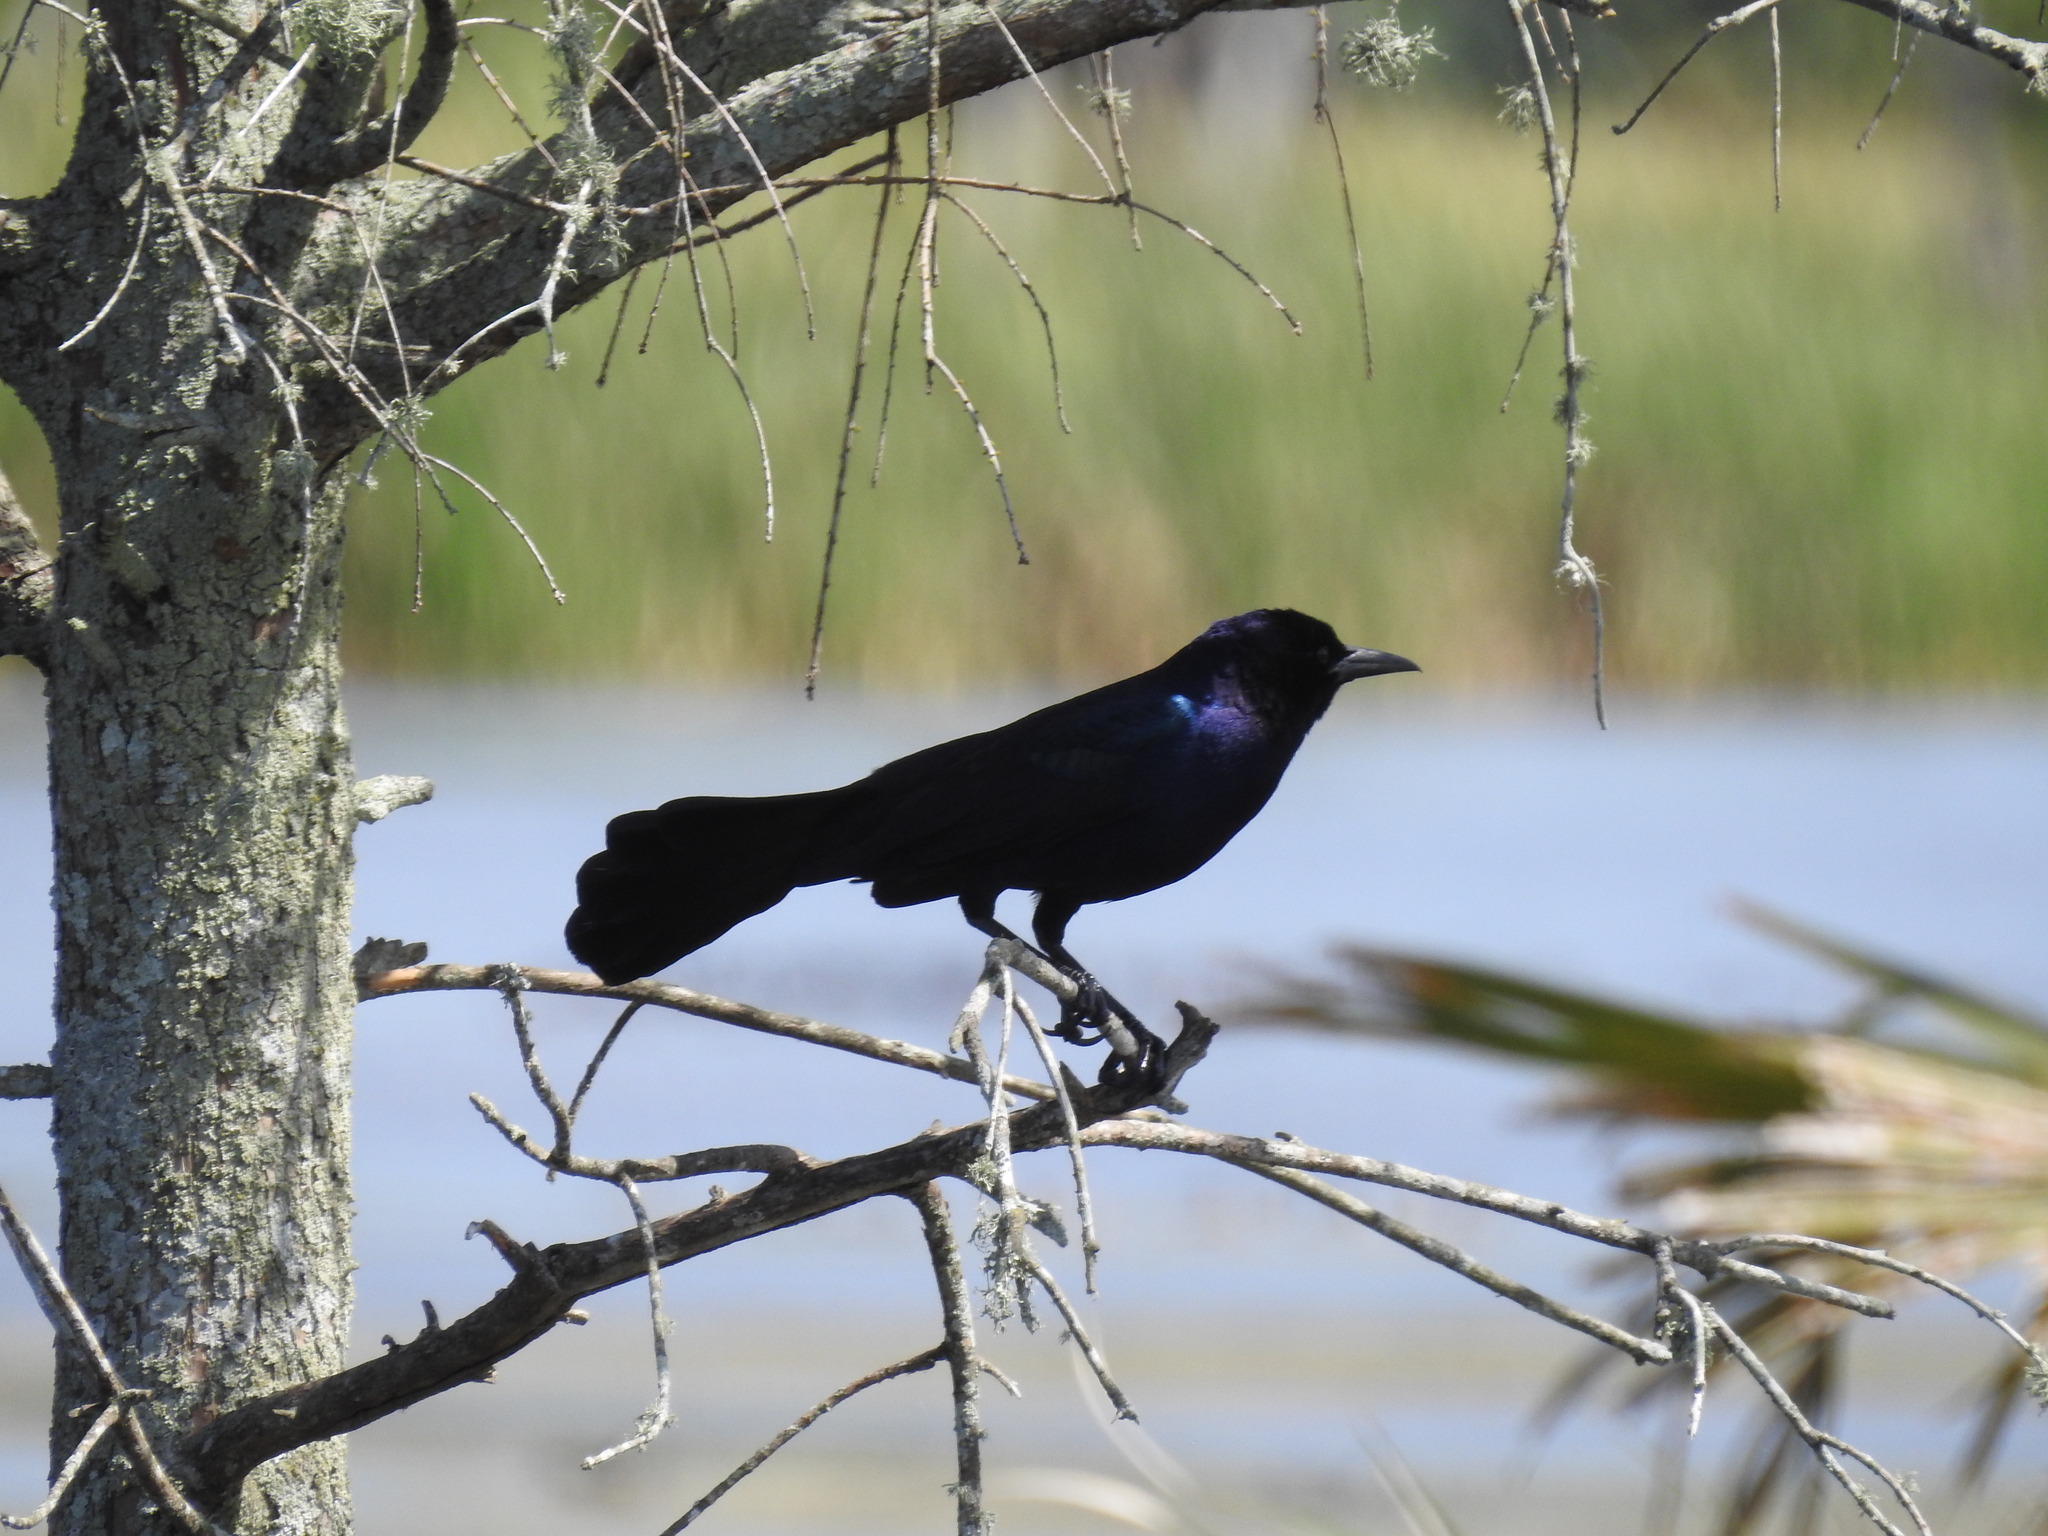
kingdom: Animalia
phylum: Chordata
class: Aves
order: Passeriformes
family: Icteridae
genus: Quiscalus
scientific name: Quiscalus major
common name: Boat-tailed grackle
